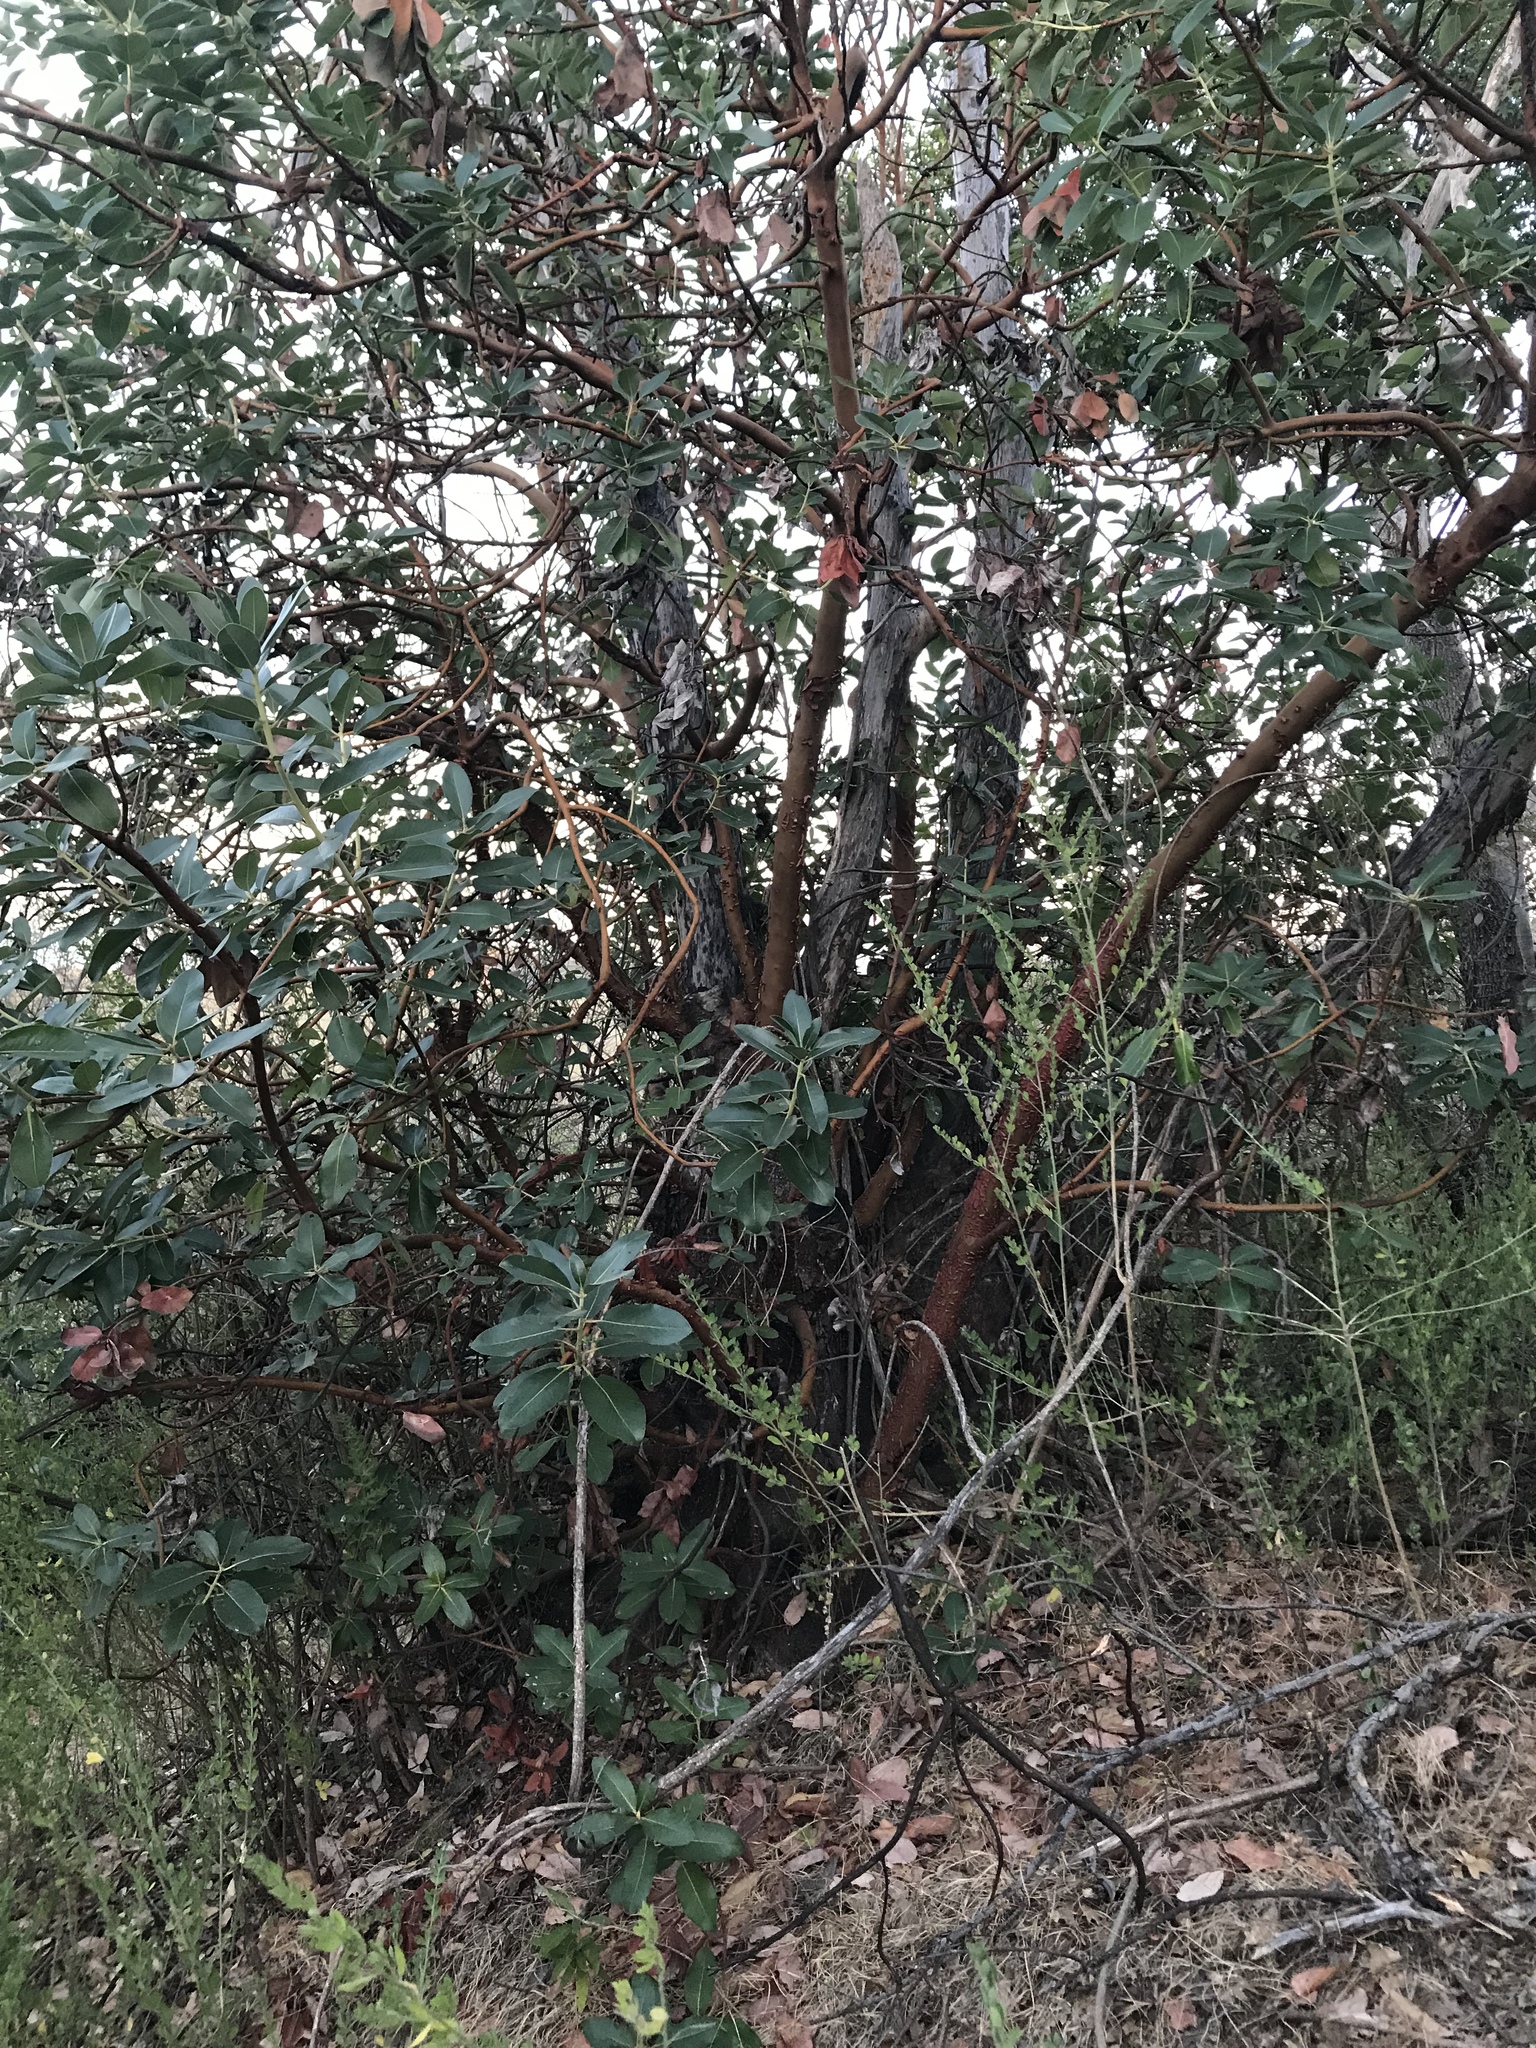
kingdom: Plantae
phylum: Tracheophyta
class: Magnoliopsida
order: Ericales
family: Ericaceae
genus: Arbutus
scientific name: Arbutus menziesii
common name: Pacific madrone
